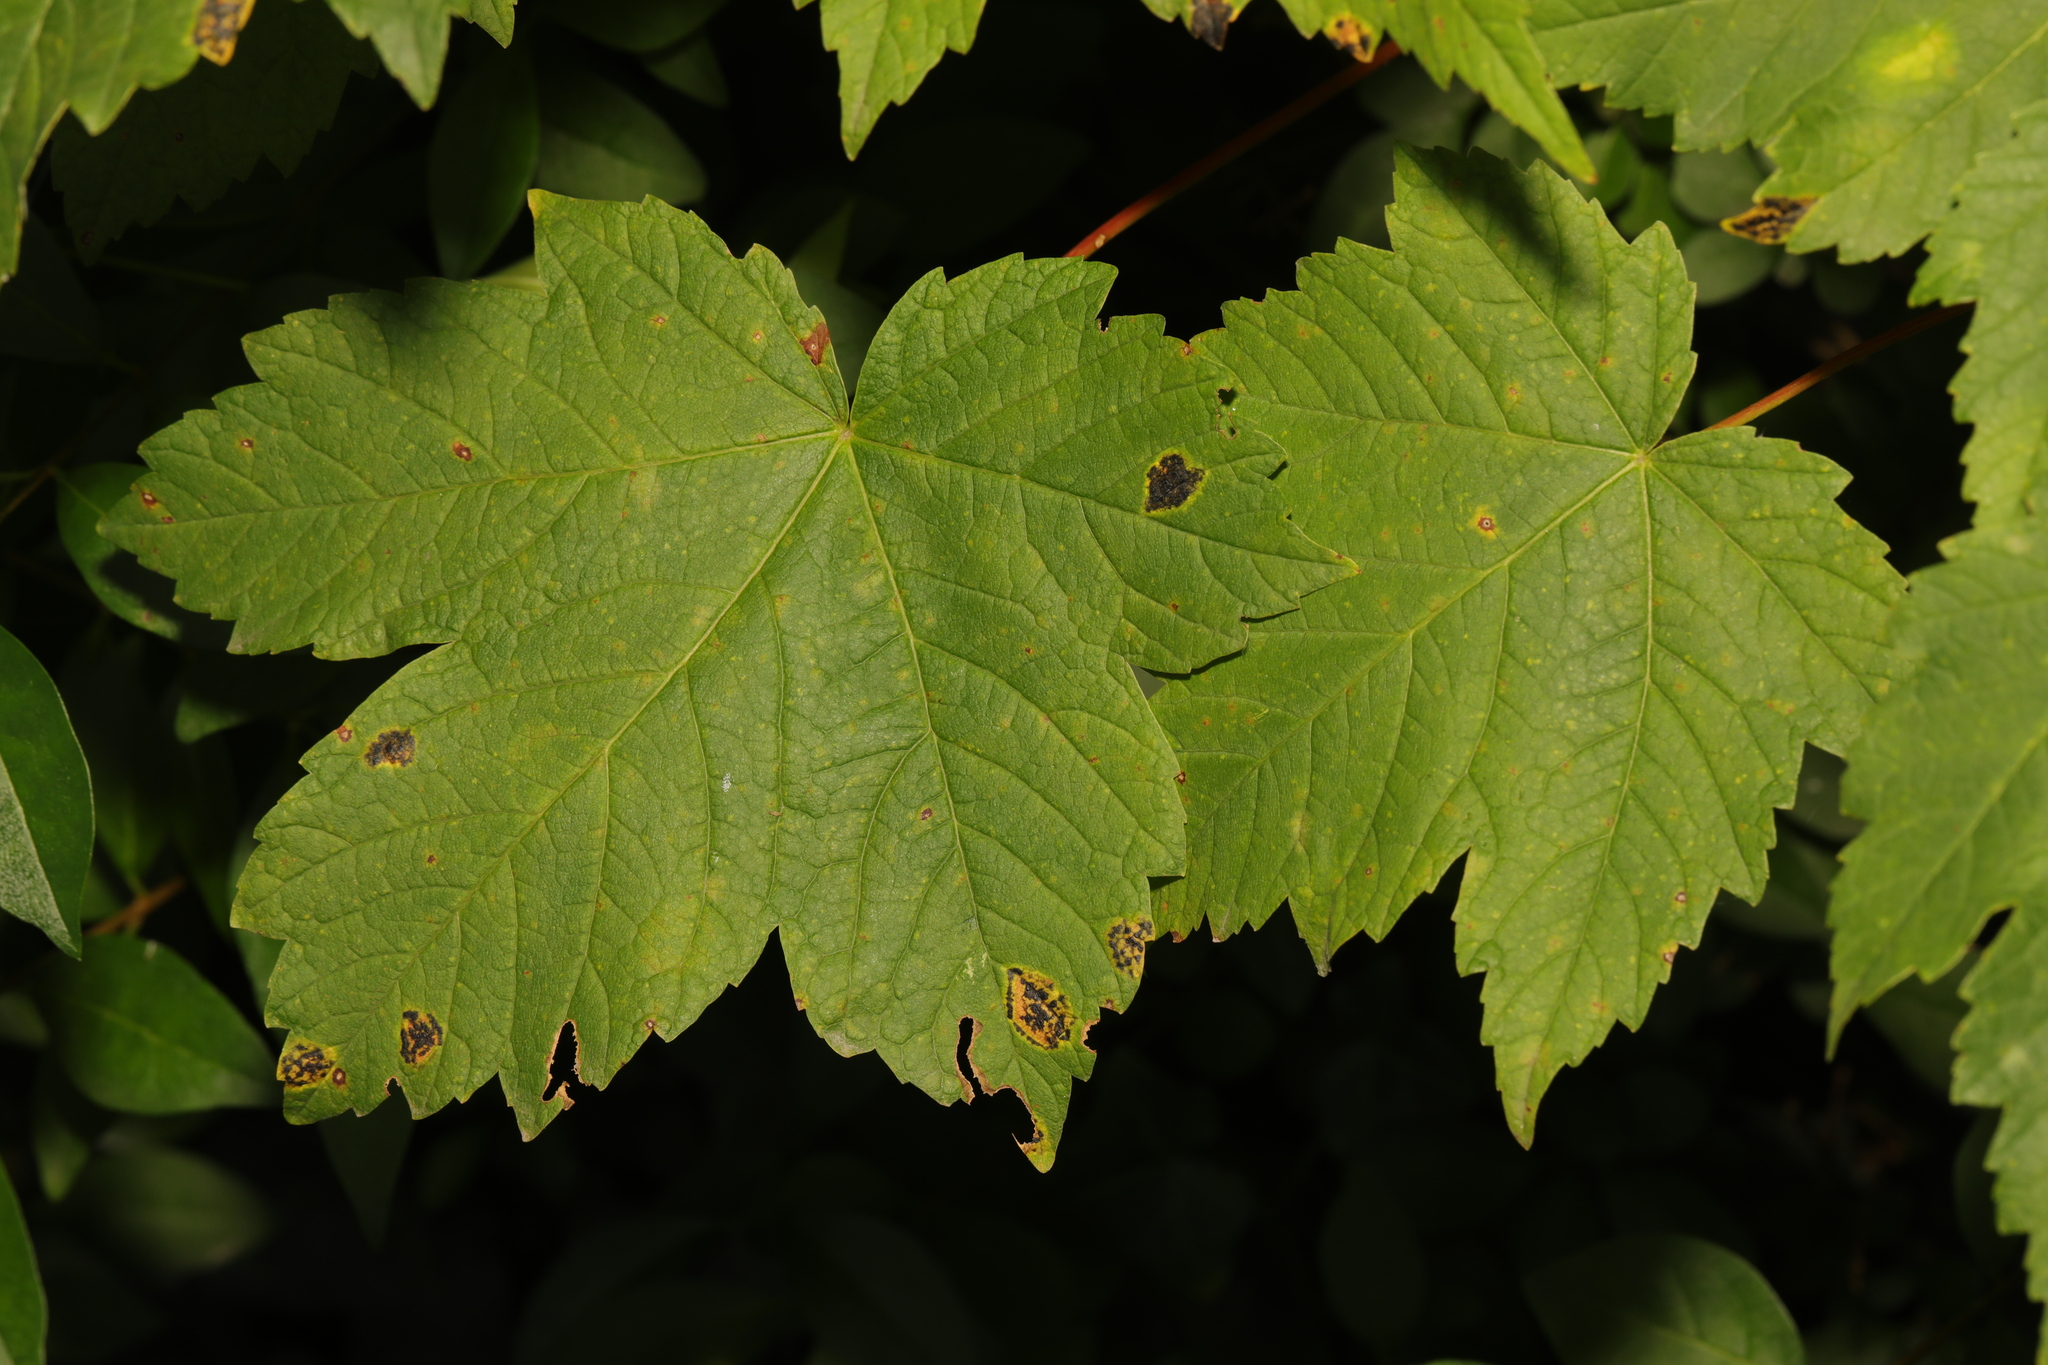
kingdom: Plantae
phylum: Tracheophyta
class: Magnoliopsida
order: Sapindales
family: Sapindaceae
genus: Acer
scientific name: Acer pseudoplatanus
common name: Sycamore
